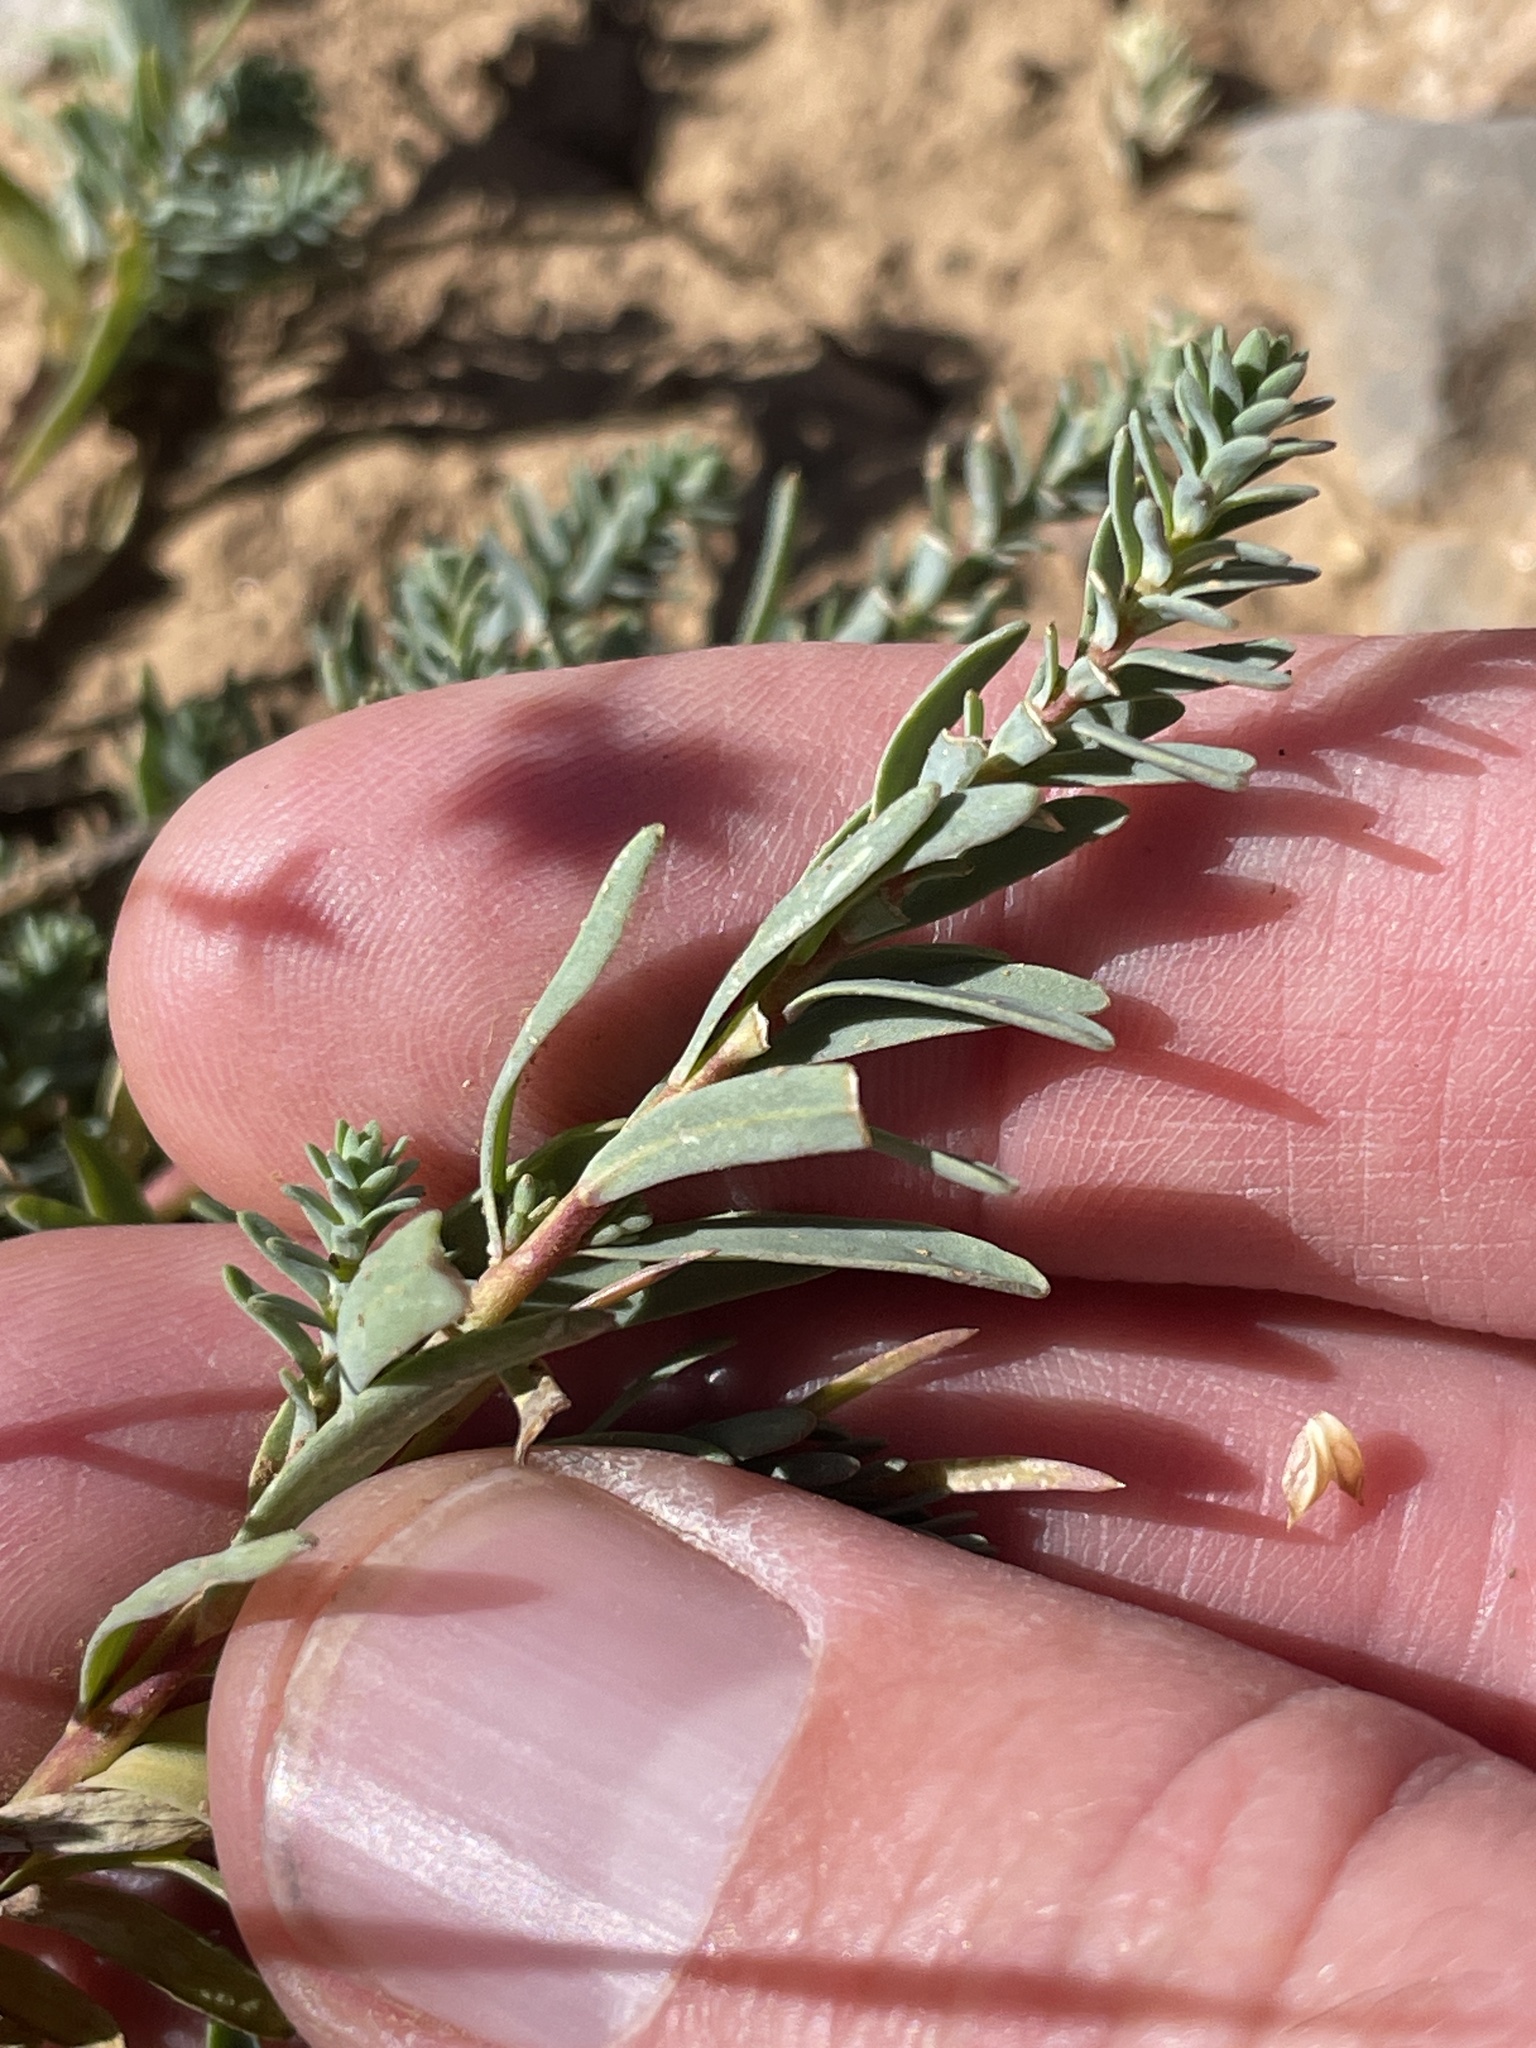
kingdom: Plantae
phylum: Tracheophyta
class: Magnoliopsida
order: Malpighiales
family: Linaceae
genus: Linum
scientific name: Linum kingii
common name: King's yellow flax
